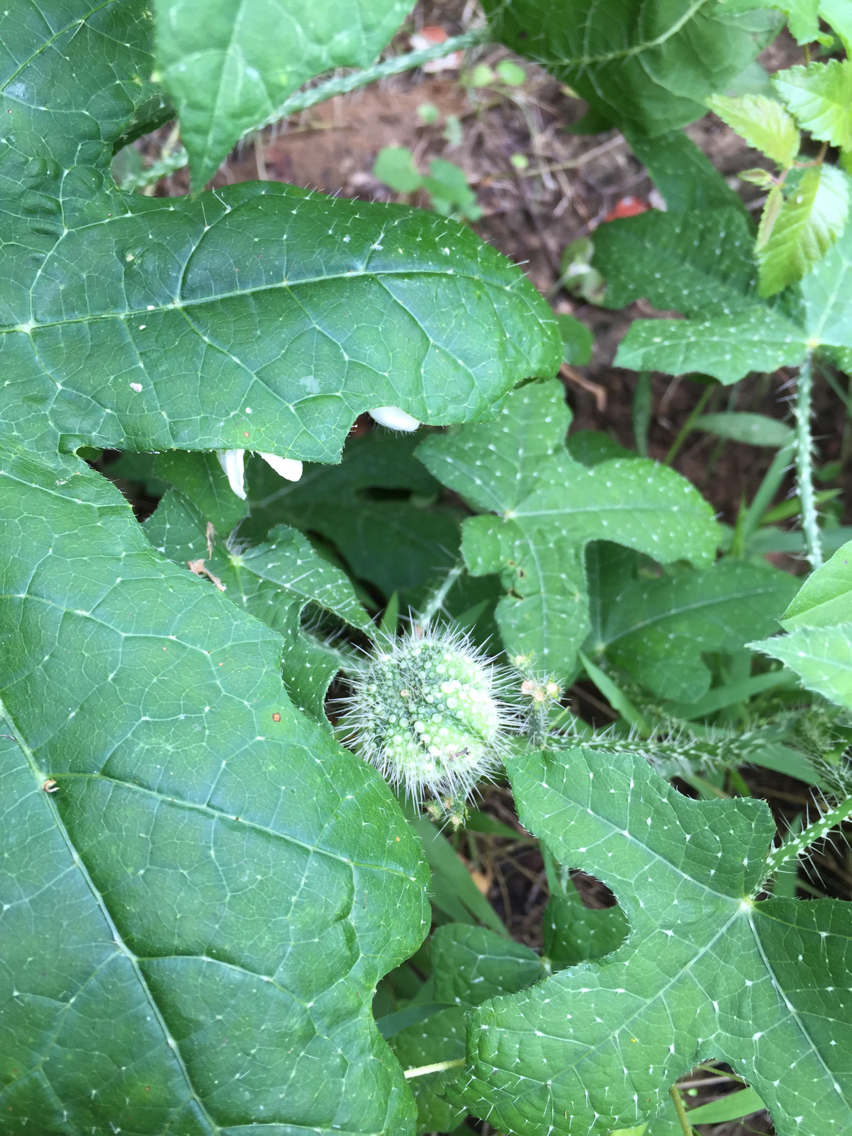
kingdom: Plantae
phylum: Tracheophyta
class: Magnoliopsida
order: Malpighiales
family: Euphorbiaceae
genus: Cnidoscolus
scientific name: Cnidoscolus texanus
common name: Texas bull-nettle
